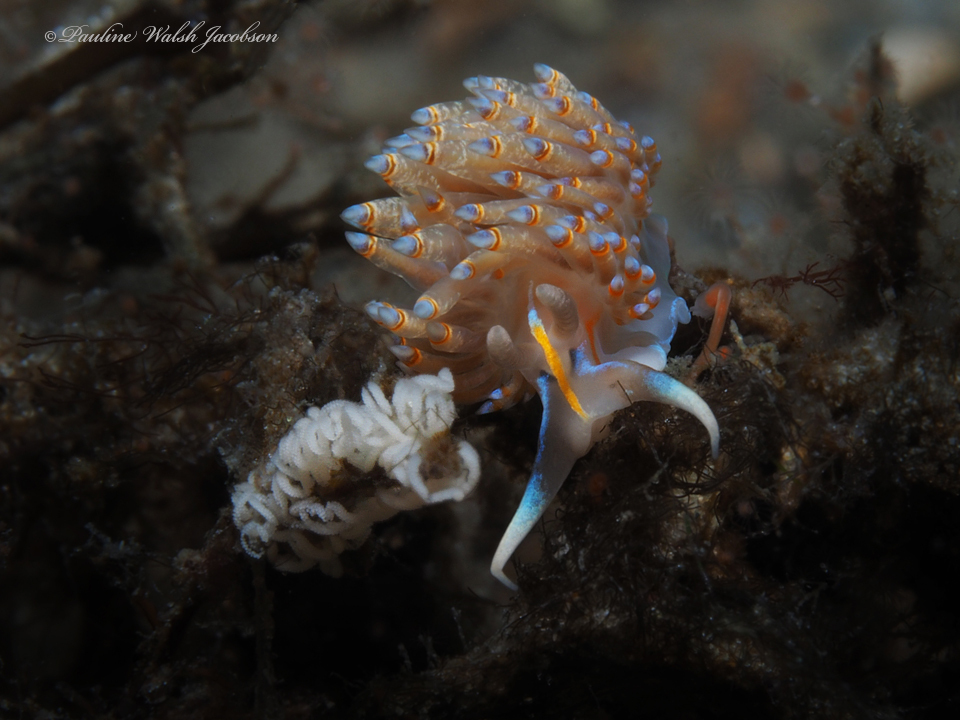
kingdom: Animalia
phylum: Mollusca
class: Gastropoda
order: Nudibranchia
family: Myrrhinidae
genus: Dondice
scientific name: Dondice jupiteriensis
